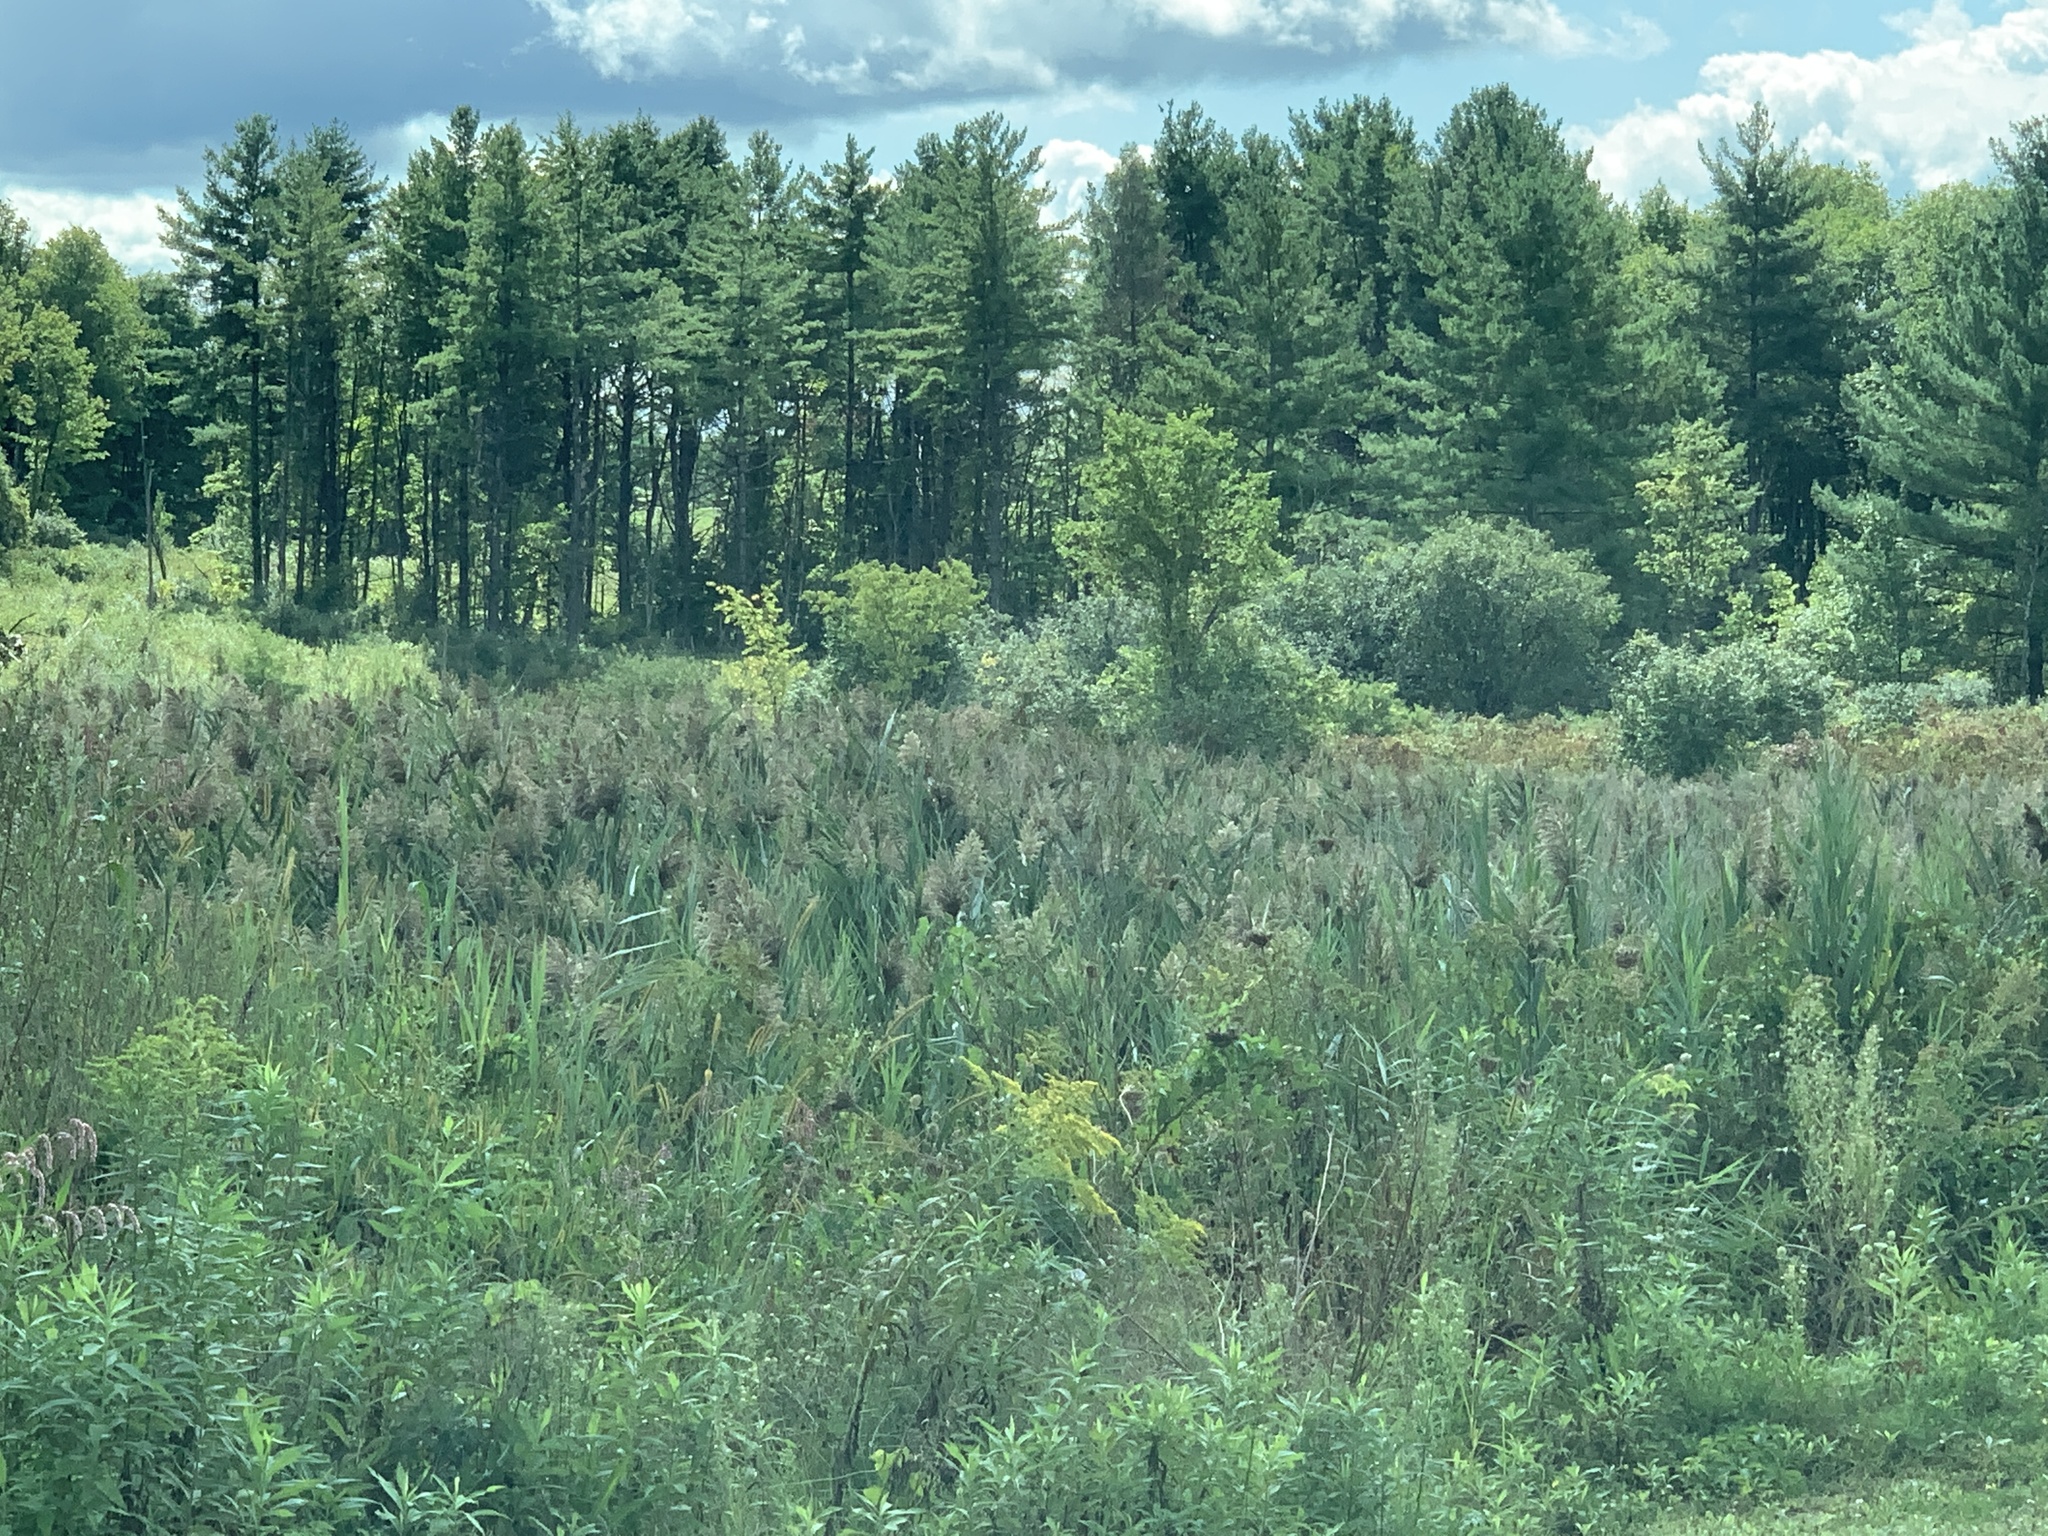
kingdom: Plantae
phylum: Tracheophyta
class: Pinopsida
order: Pinales
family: Pinaceae
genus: Pinus
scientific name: Pinus strobus
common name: Weymouth pine
